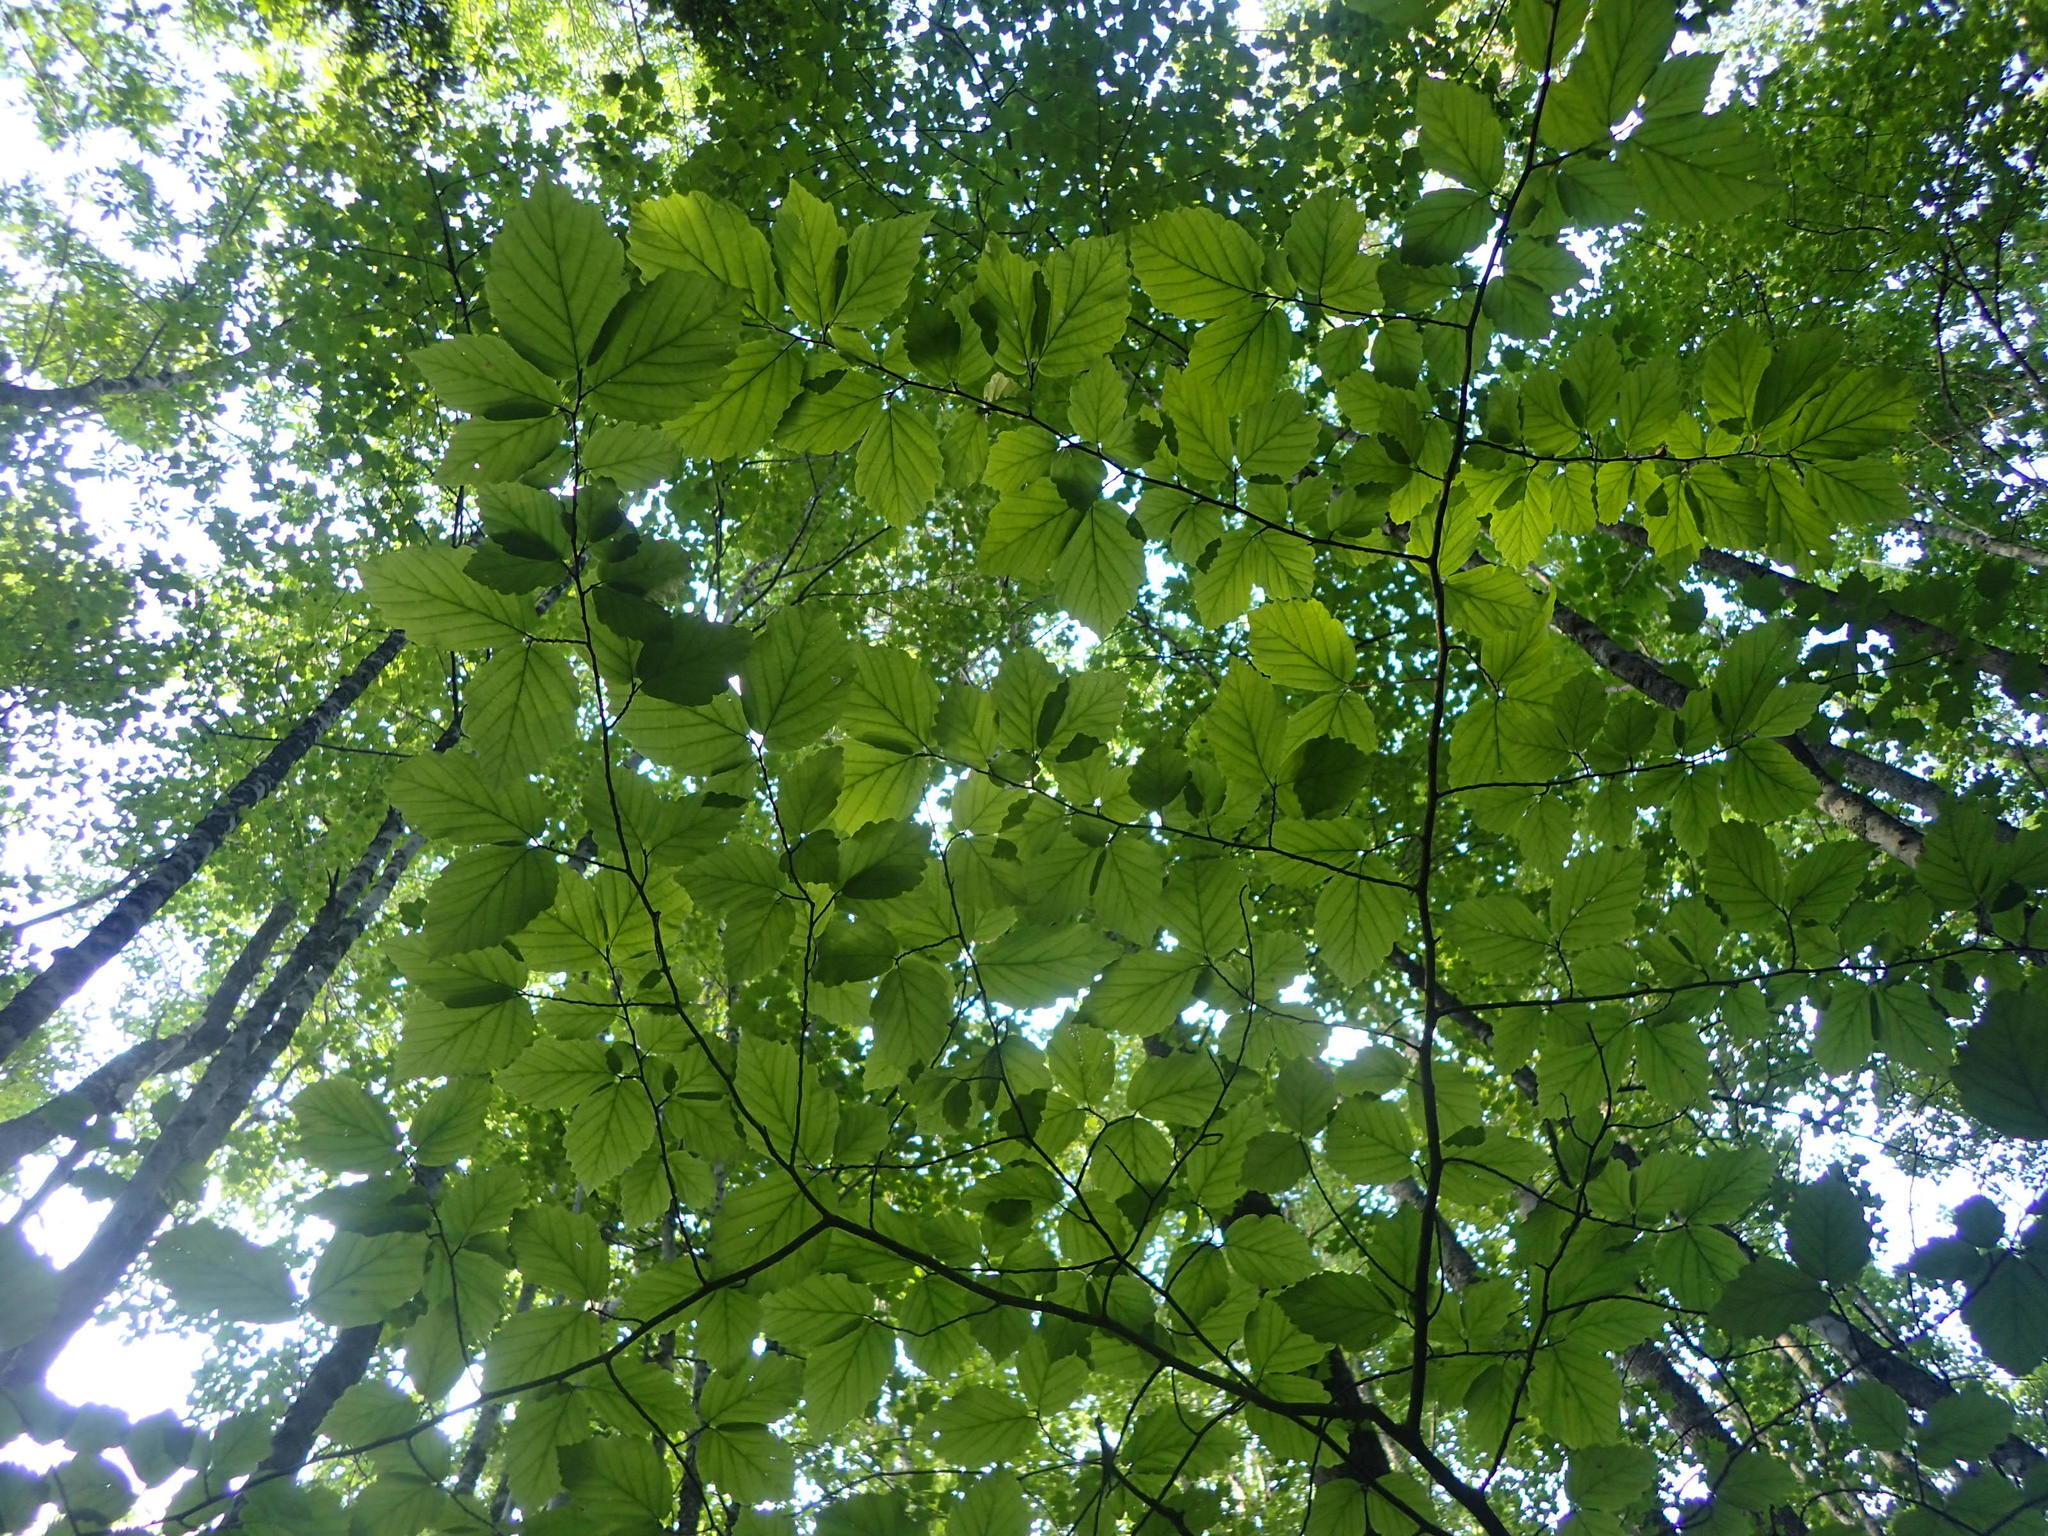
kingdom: Plantae
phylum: Tracheophyta
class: Magnoliopsida
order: Saxifragales
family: Hamamelidaceae
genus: Hamamelis
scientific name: Hamamelis virginiana
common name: Witch-hazel
